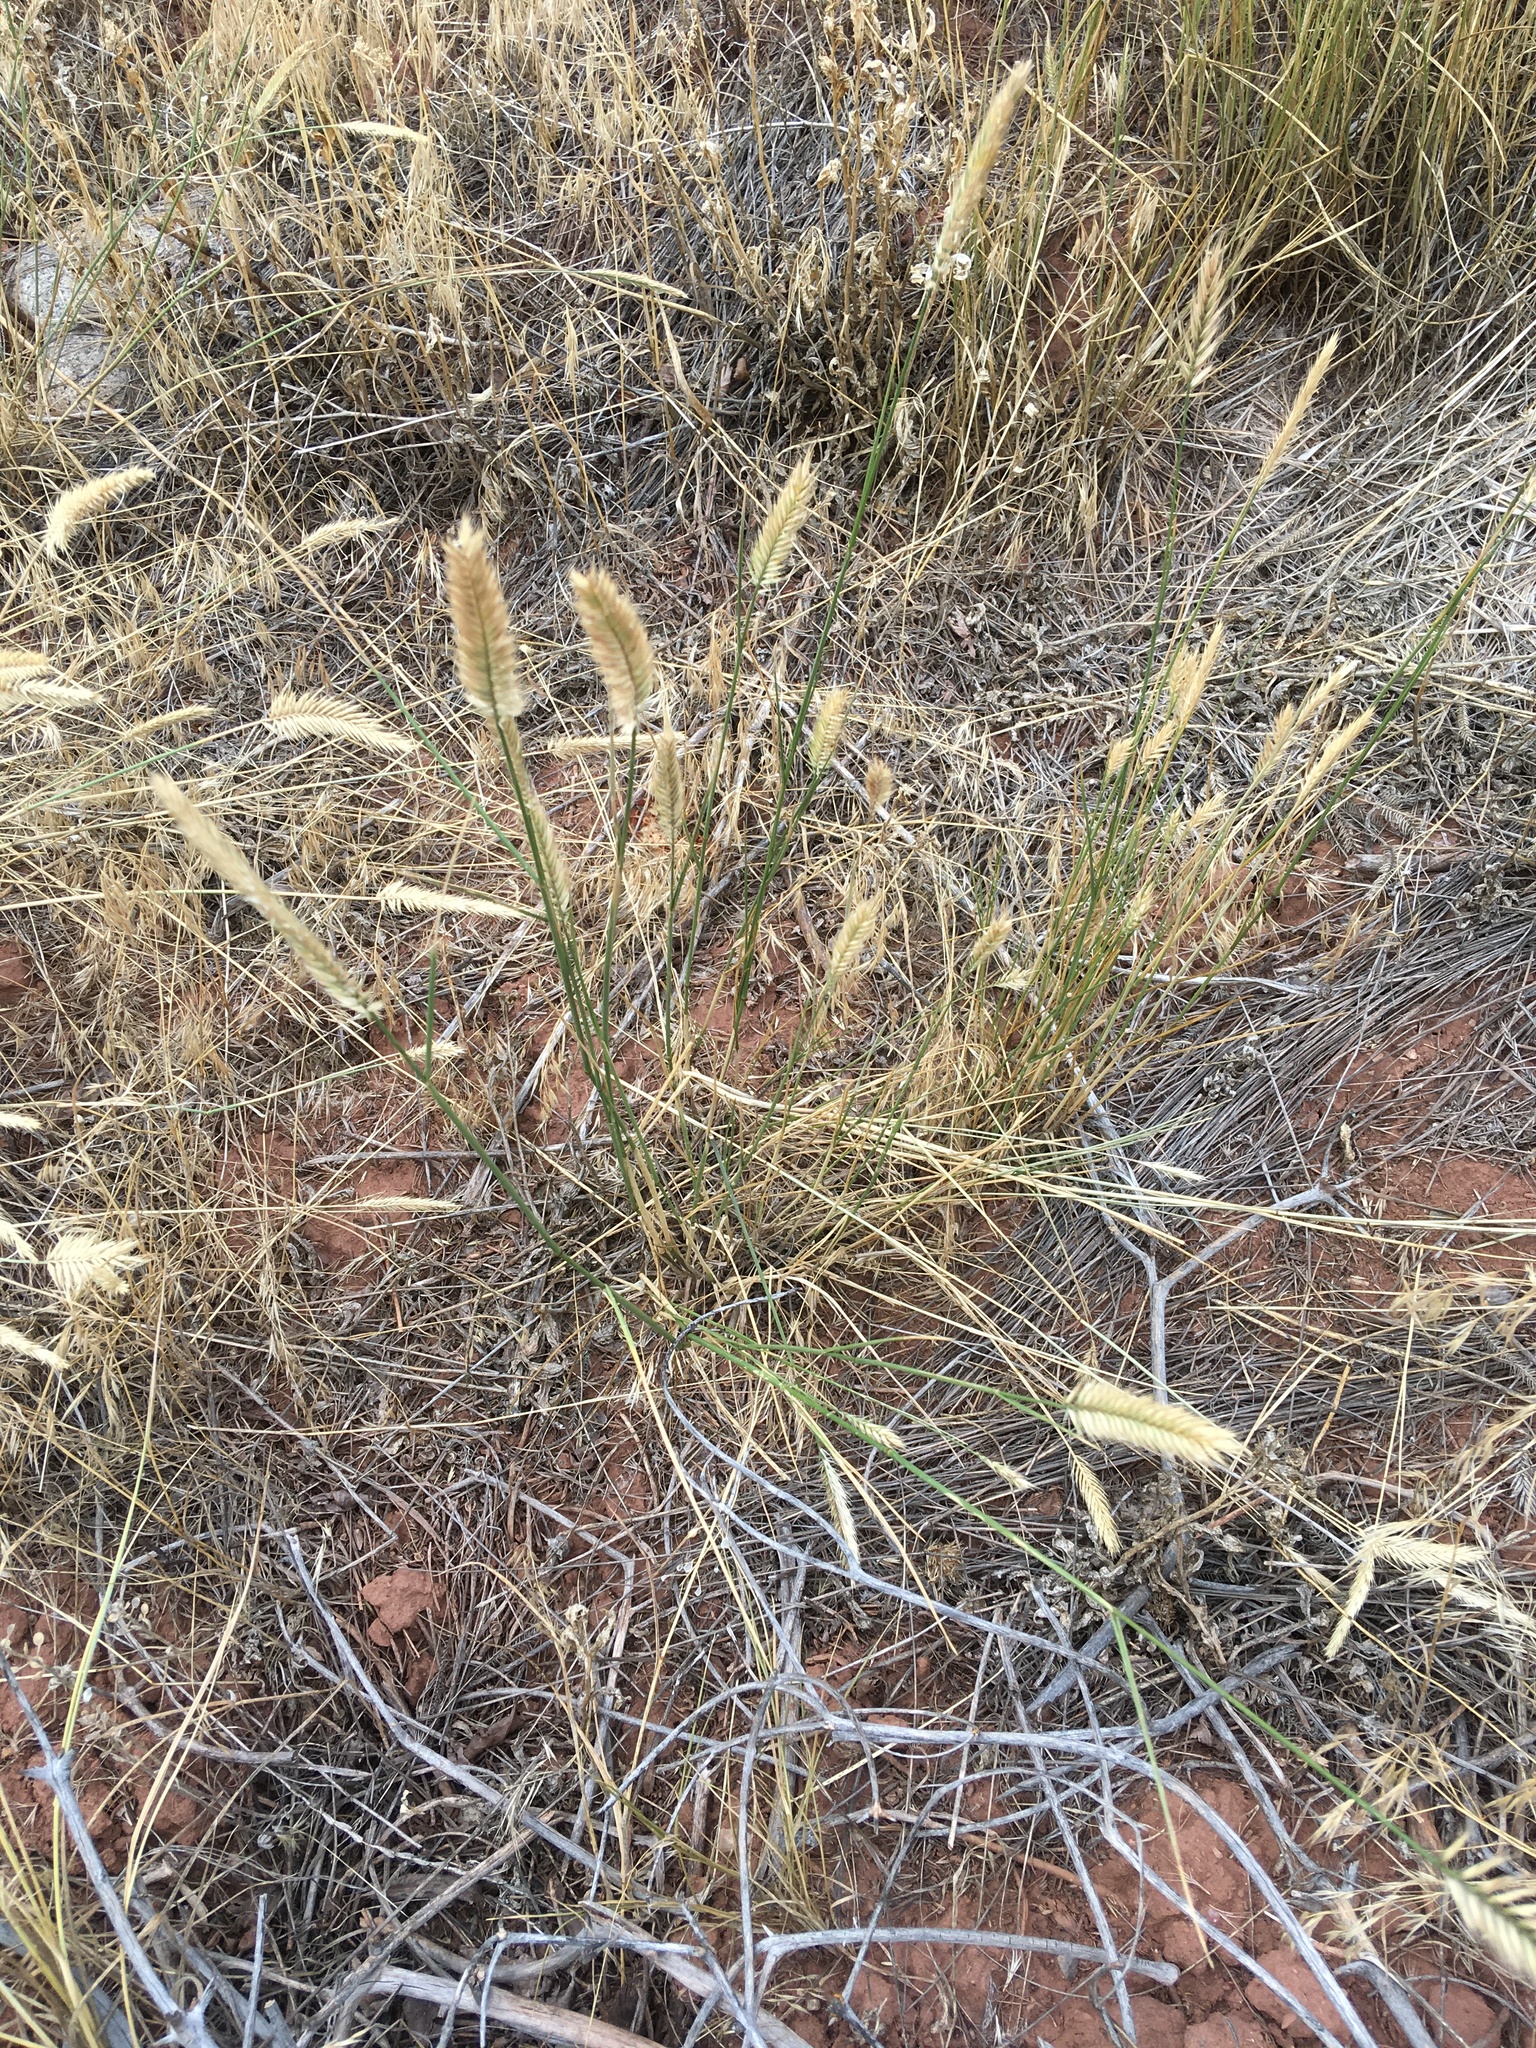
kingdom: Plantae
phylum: Tracheophyta
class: Liliopsida
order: Poales
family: Poaceae
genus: Agropyron
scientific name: Agropyron cristatum
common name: Crested wheatgrass
